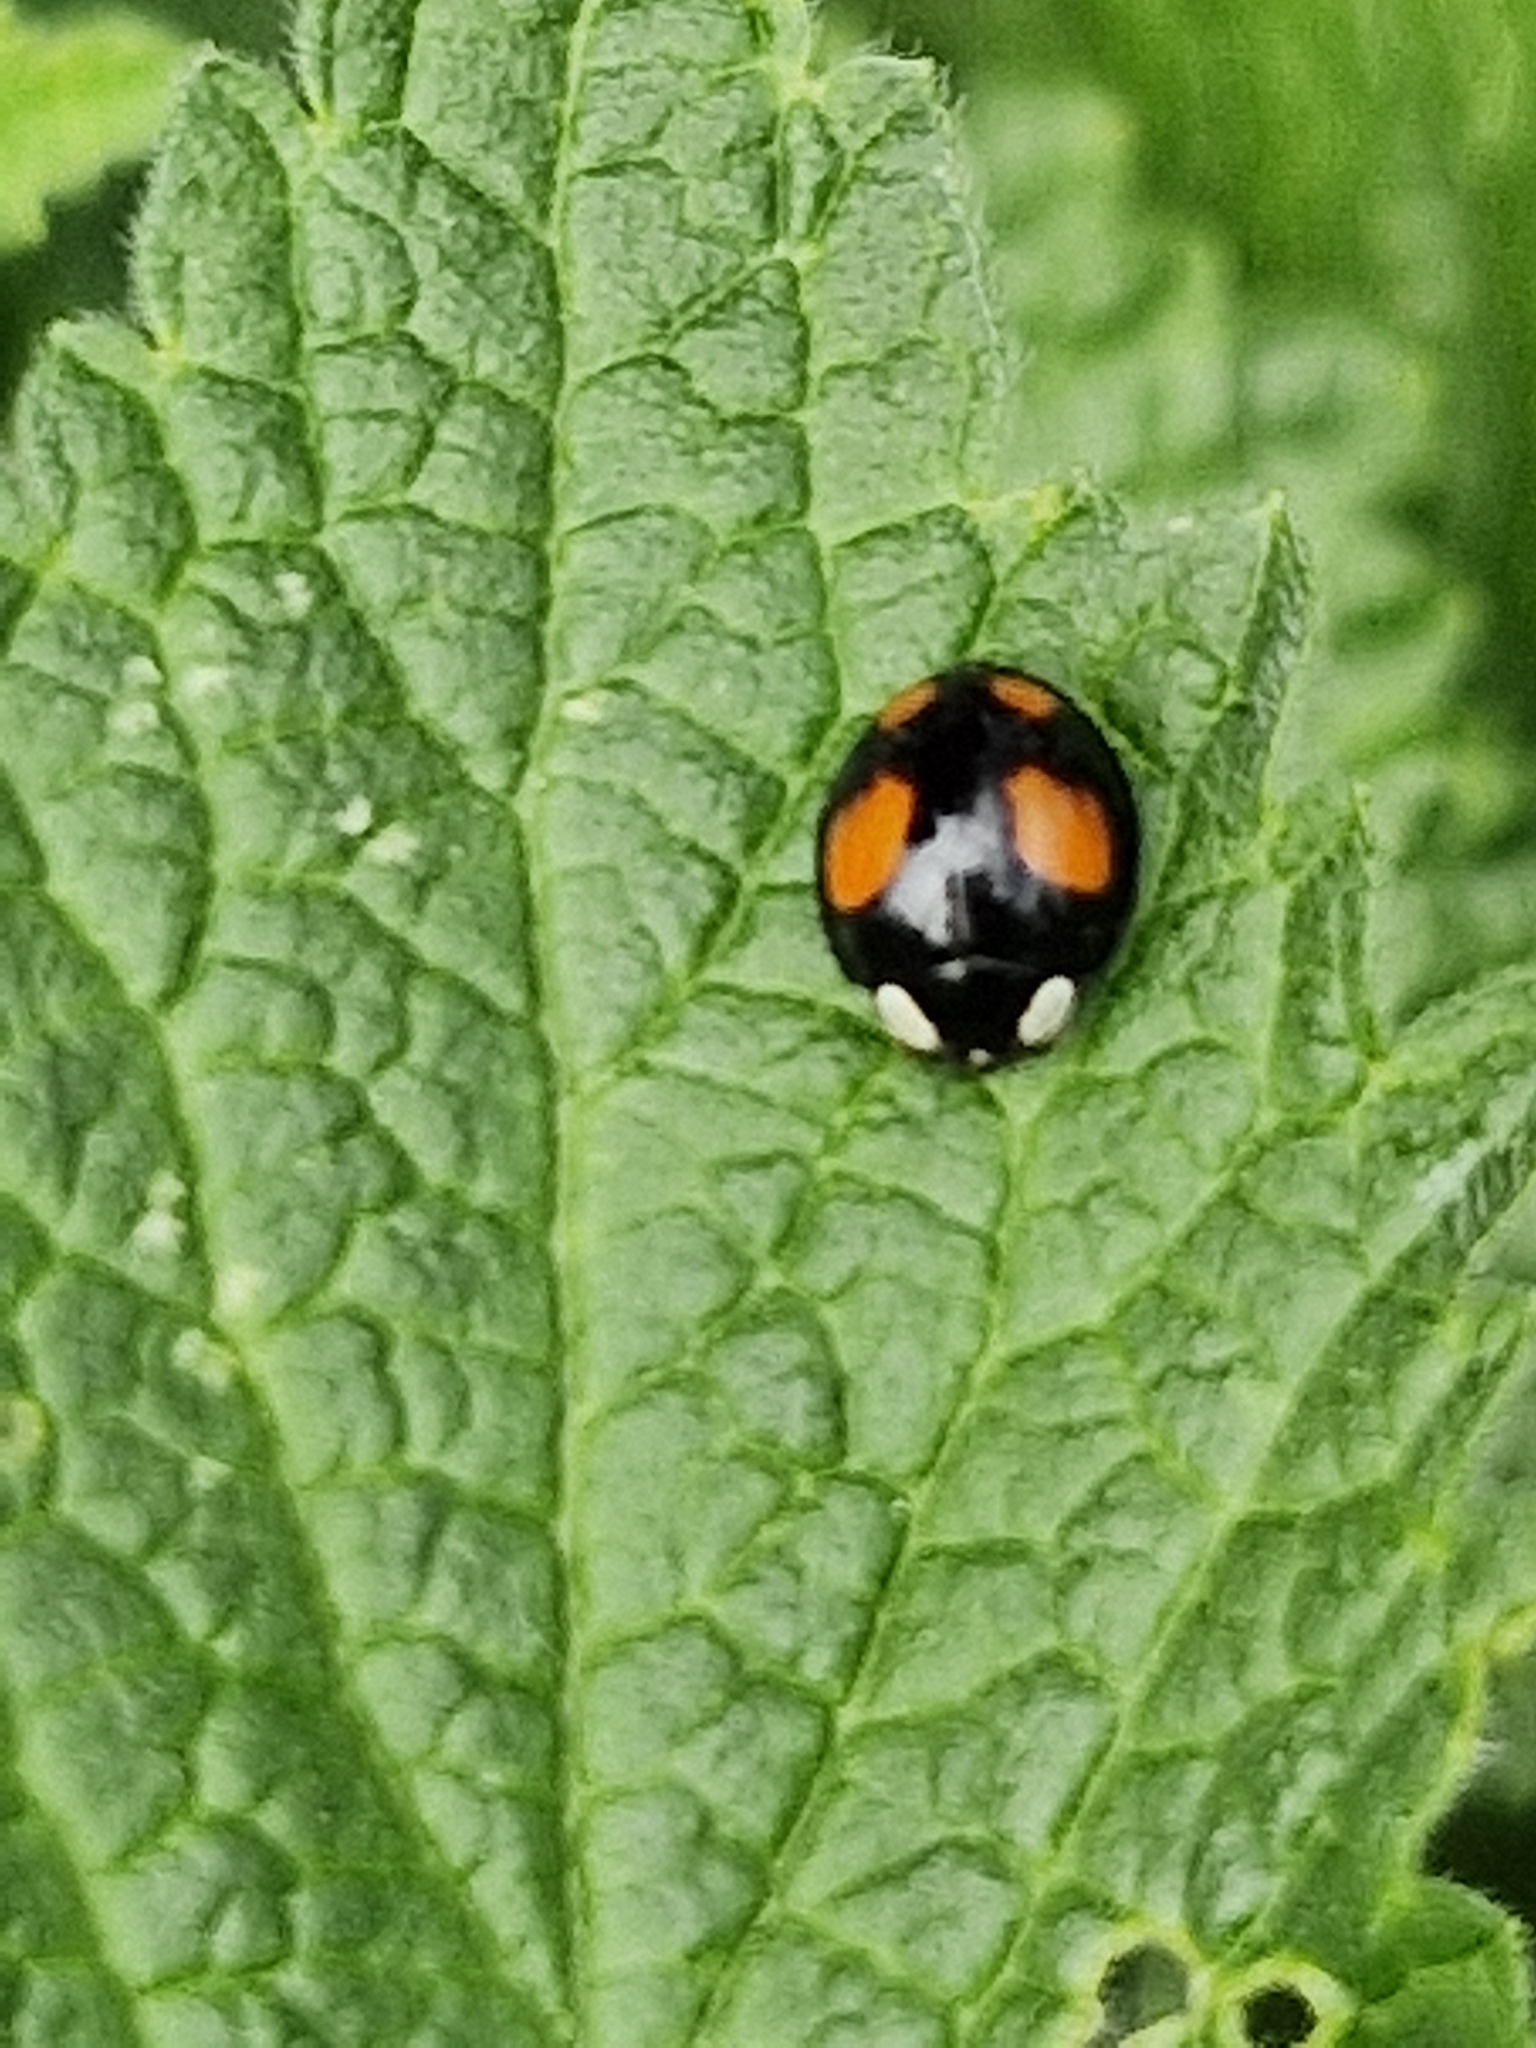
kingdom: Animalia
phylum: Arthropoda
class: Insecta
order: Coleoptera
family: Coccinellidae
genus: Harmonia
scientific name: Harmonia axyridis
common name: Harlequin ladybird
